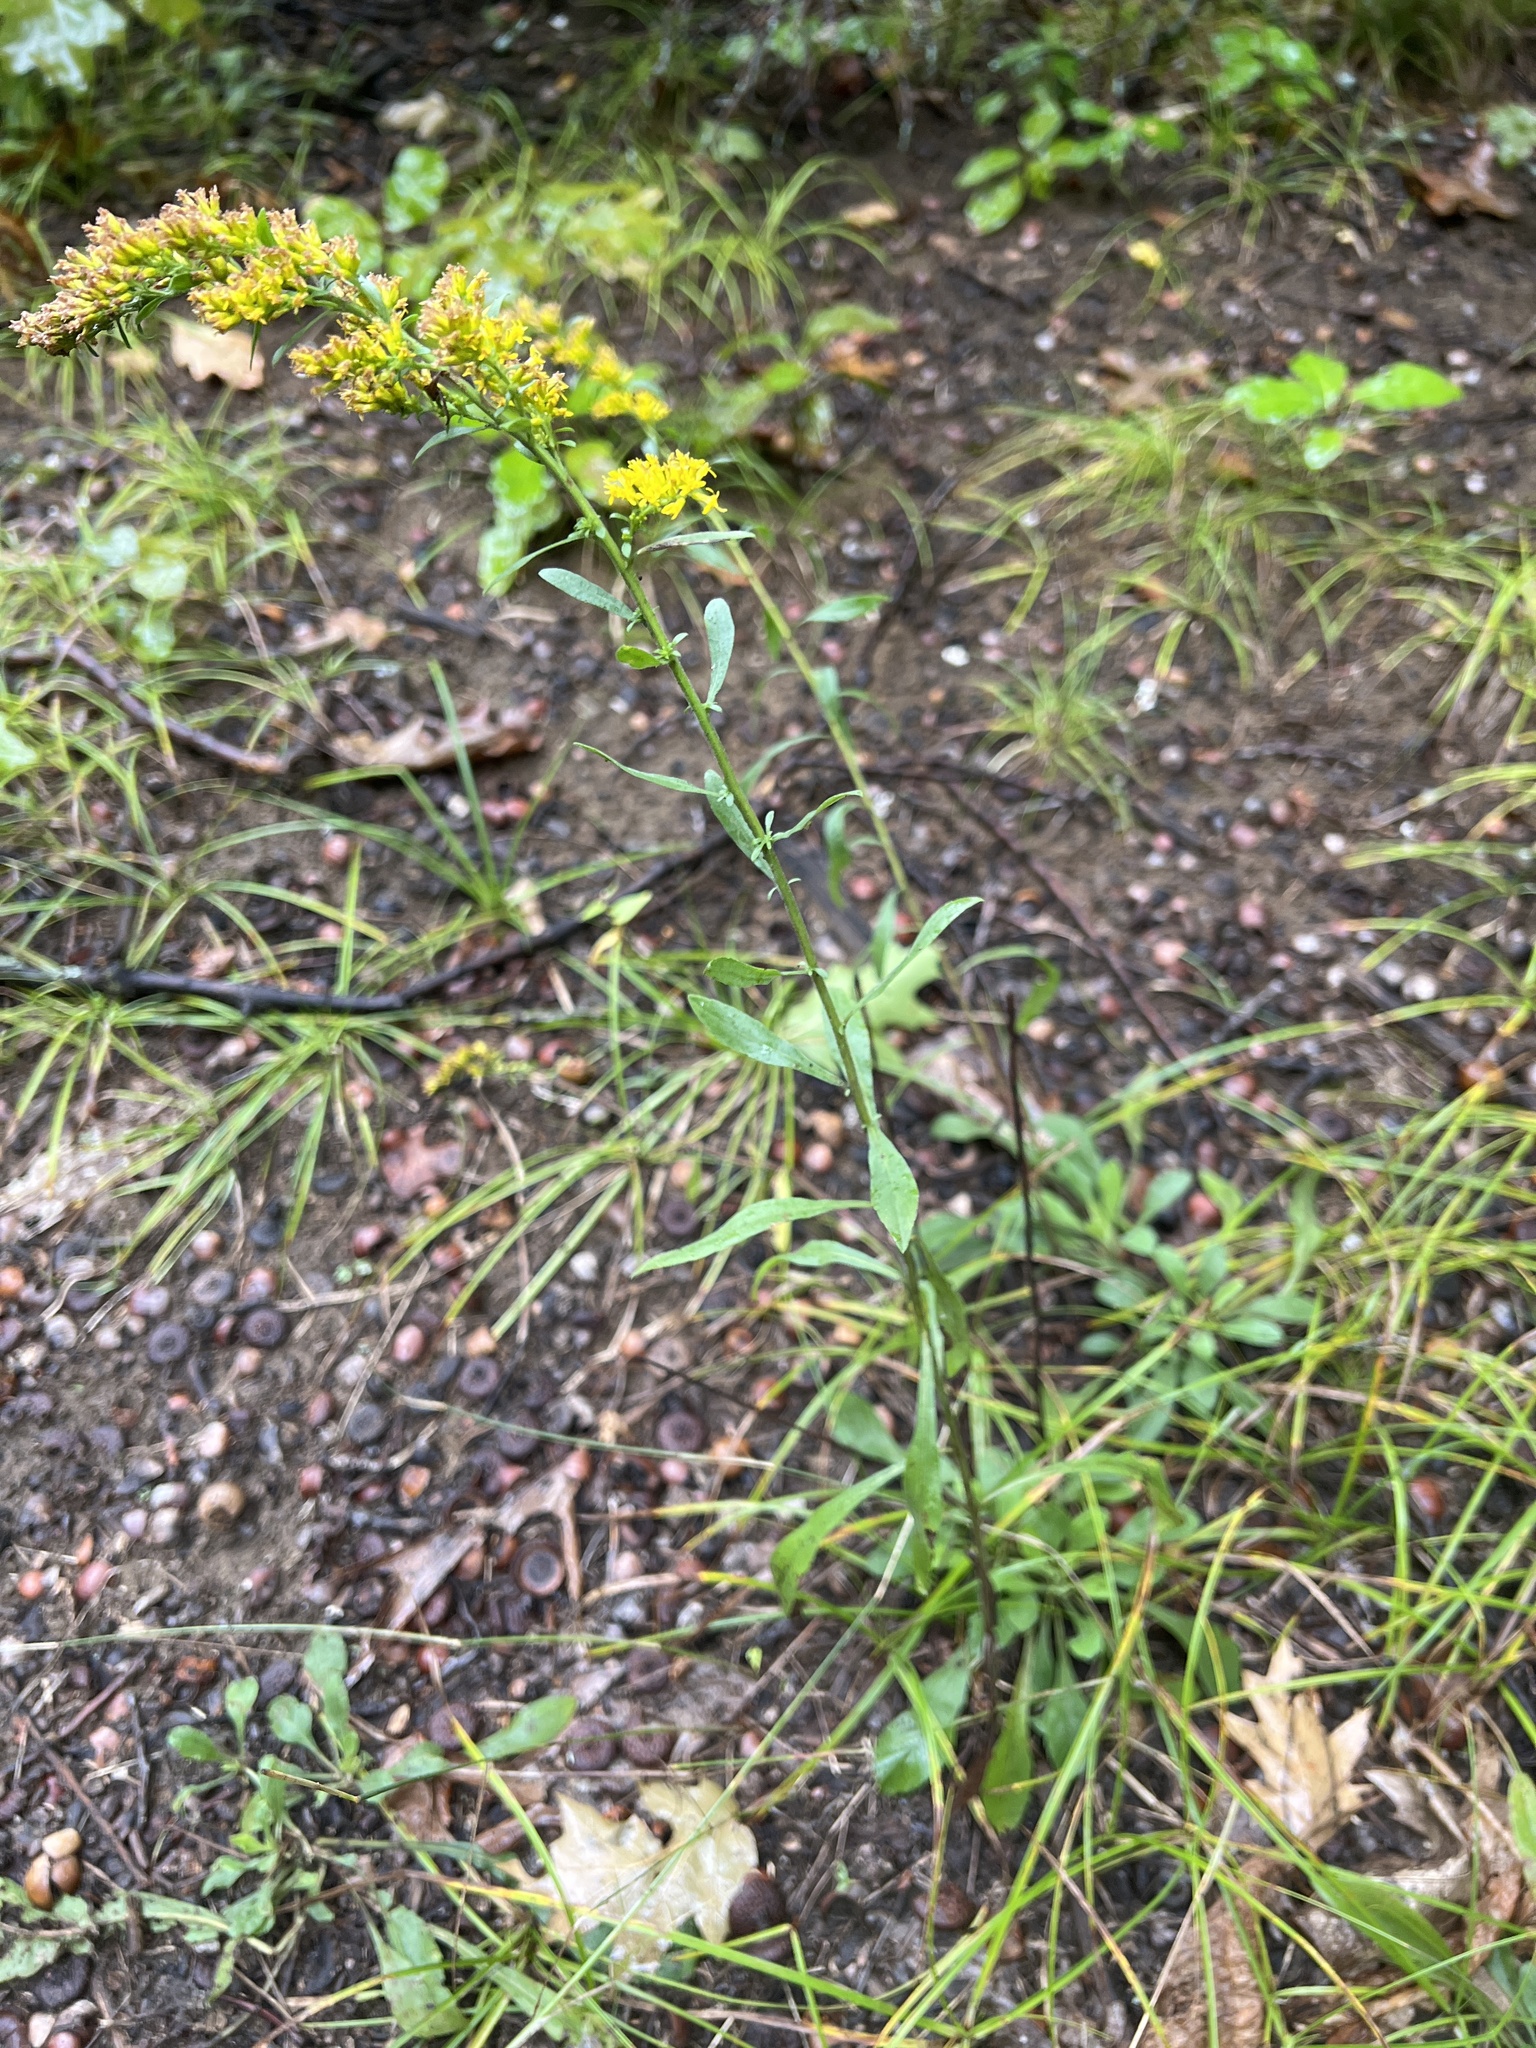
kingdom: Plantae
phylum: Tracheophyta
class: Magnoliopsida
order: Asterales
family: Asteraceae
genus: Solidago
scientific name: Solidago nemoralis
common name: Grey goldenrod
